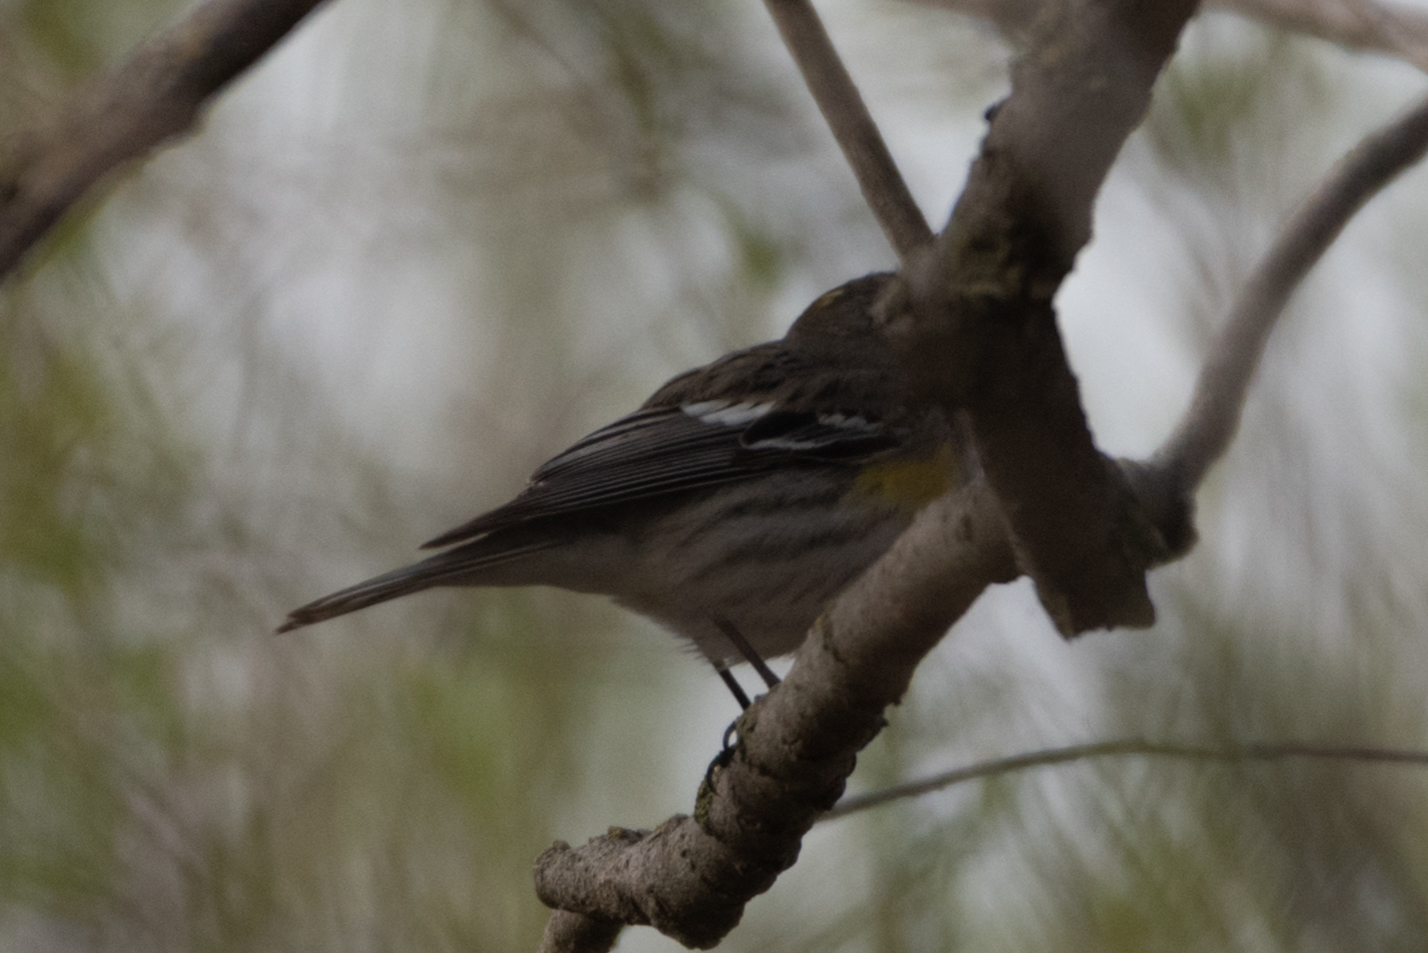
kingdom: Animalia
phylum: Chordata
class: Aves
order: Passeriformes
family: Parulidae
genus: Setophaga
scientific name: Setophaga coronata
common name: Myrtle warbler
